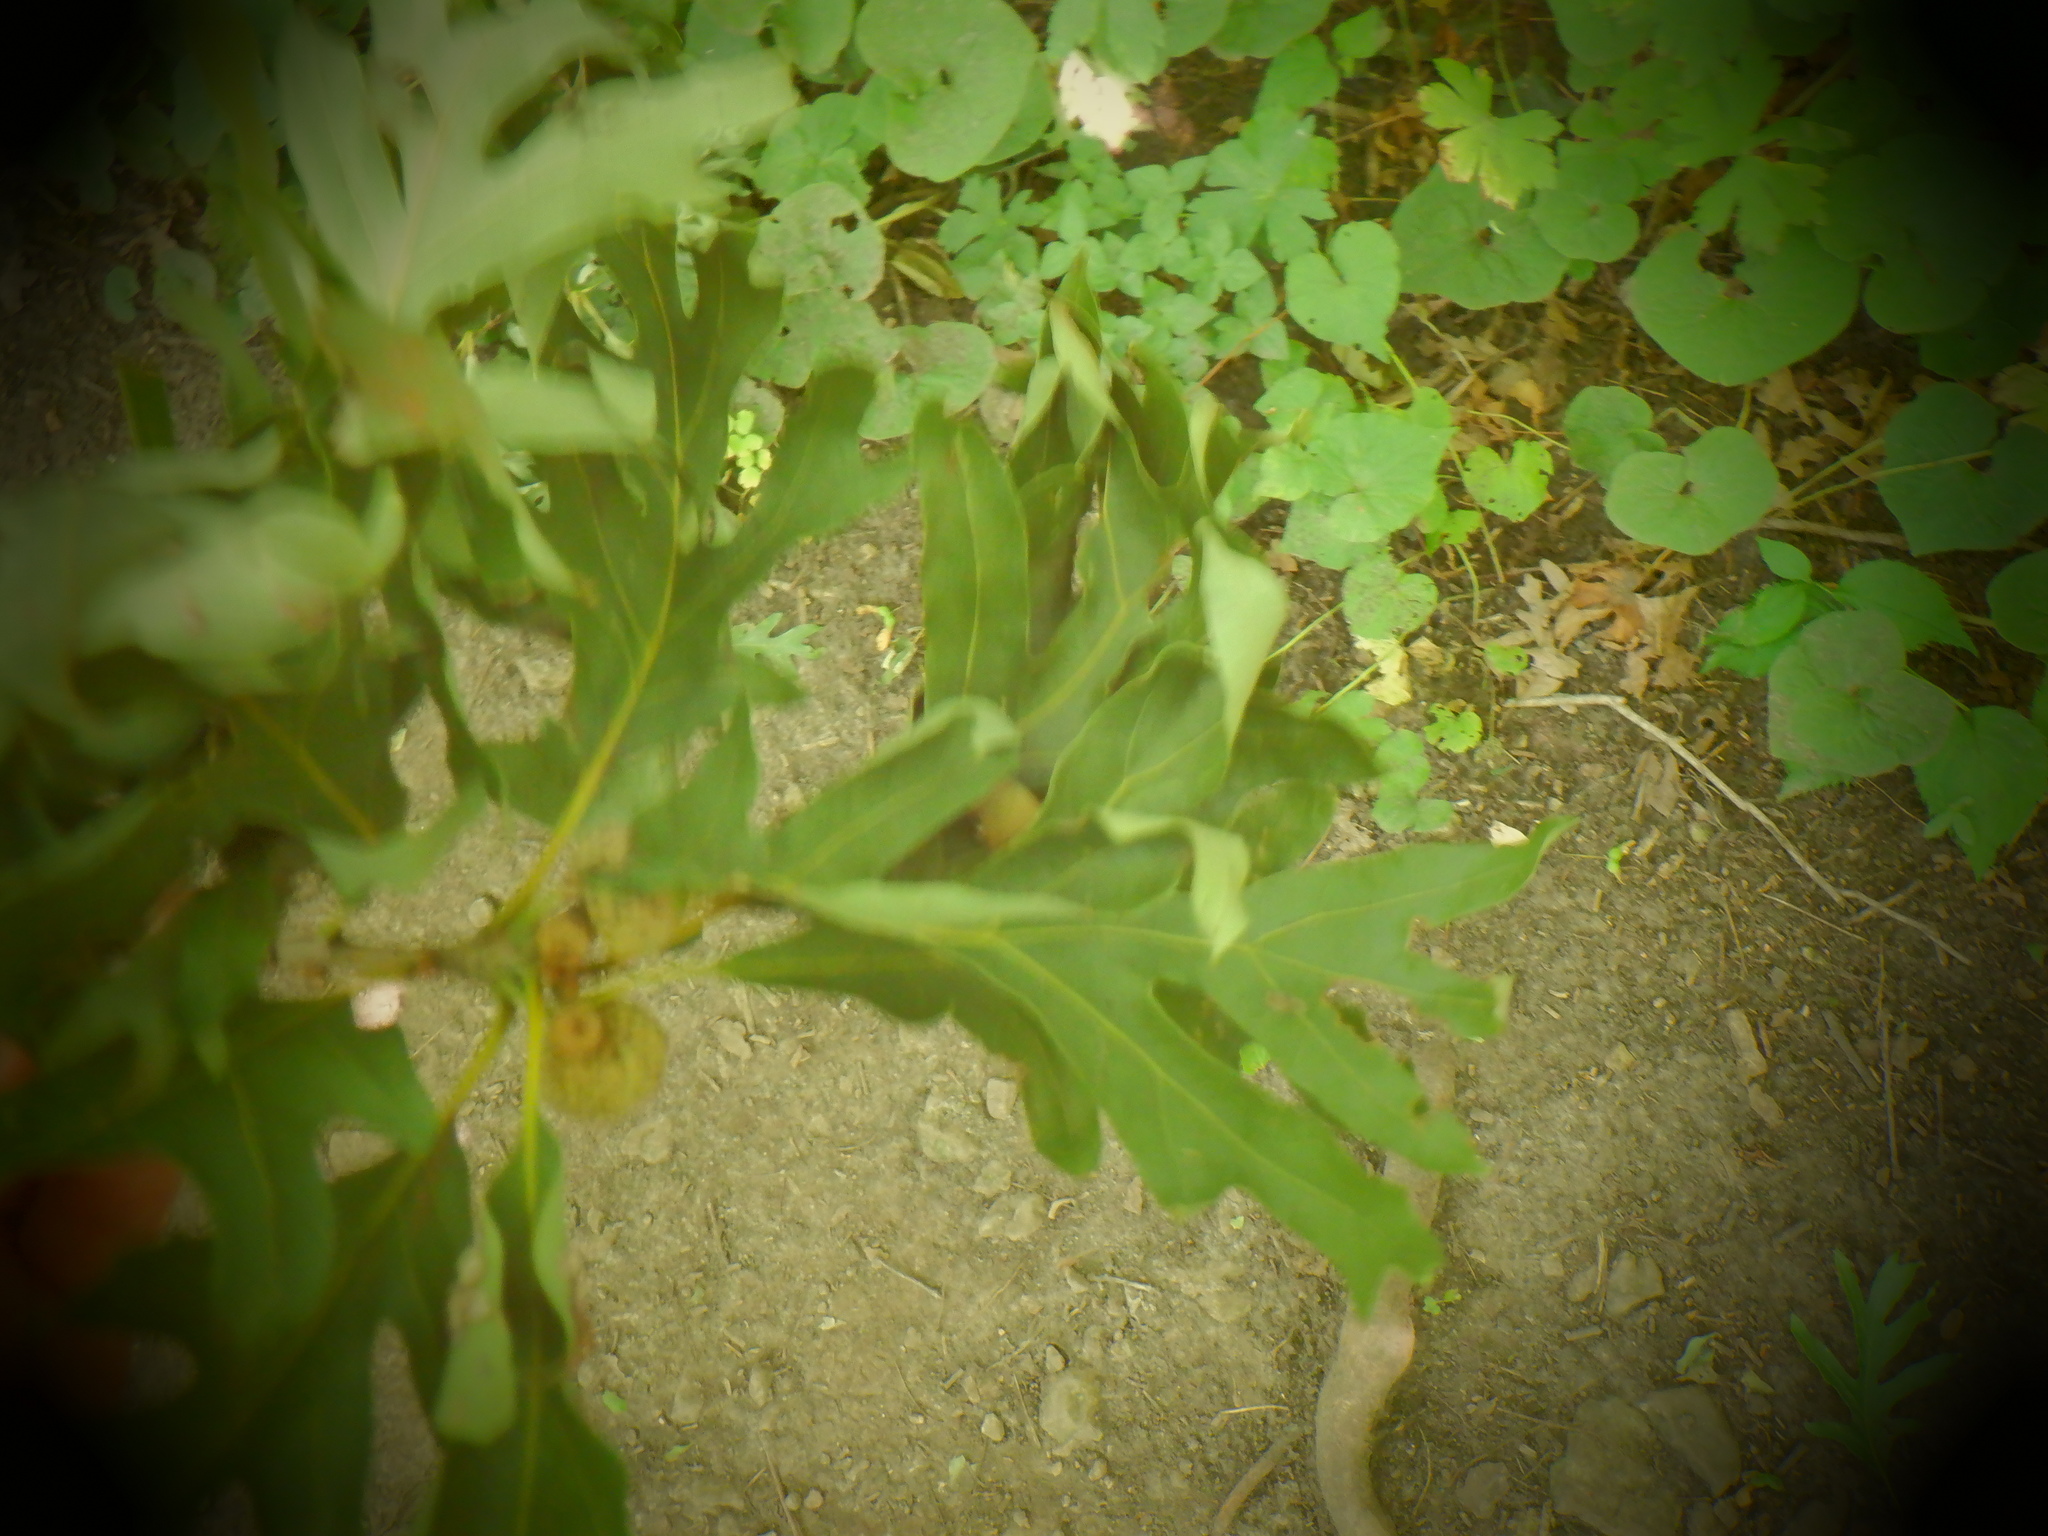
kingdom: Plantae
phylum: Tracheophyta
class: Magnoliopsida
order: Fagales
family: Fagaceae
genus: Quercus
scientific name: Quercus alba
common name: White oak
